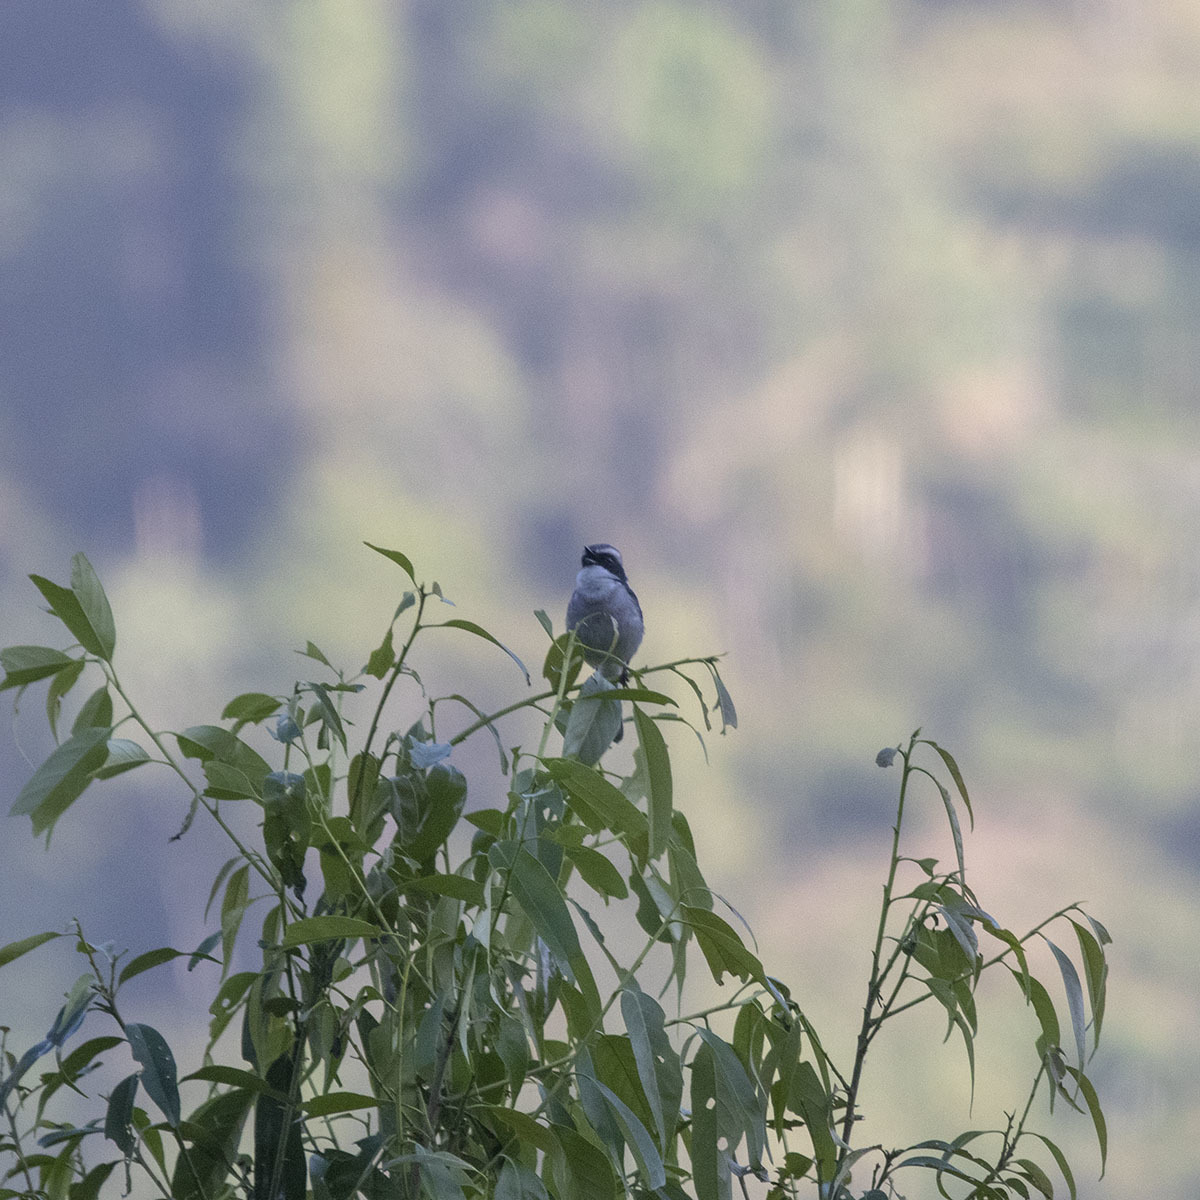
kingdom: Animalia
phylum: Chordata
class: Aves
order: Passeriformes
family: Muscicapidae
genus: Saxicola
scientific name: Saxicola ferreus
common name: Grey bush chat
